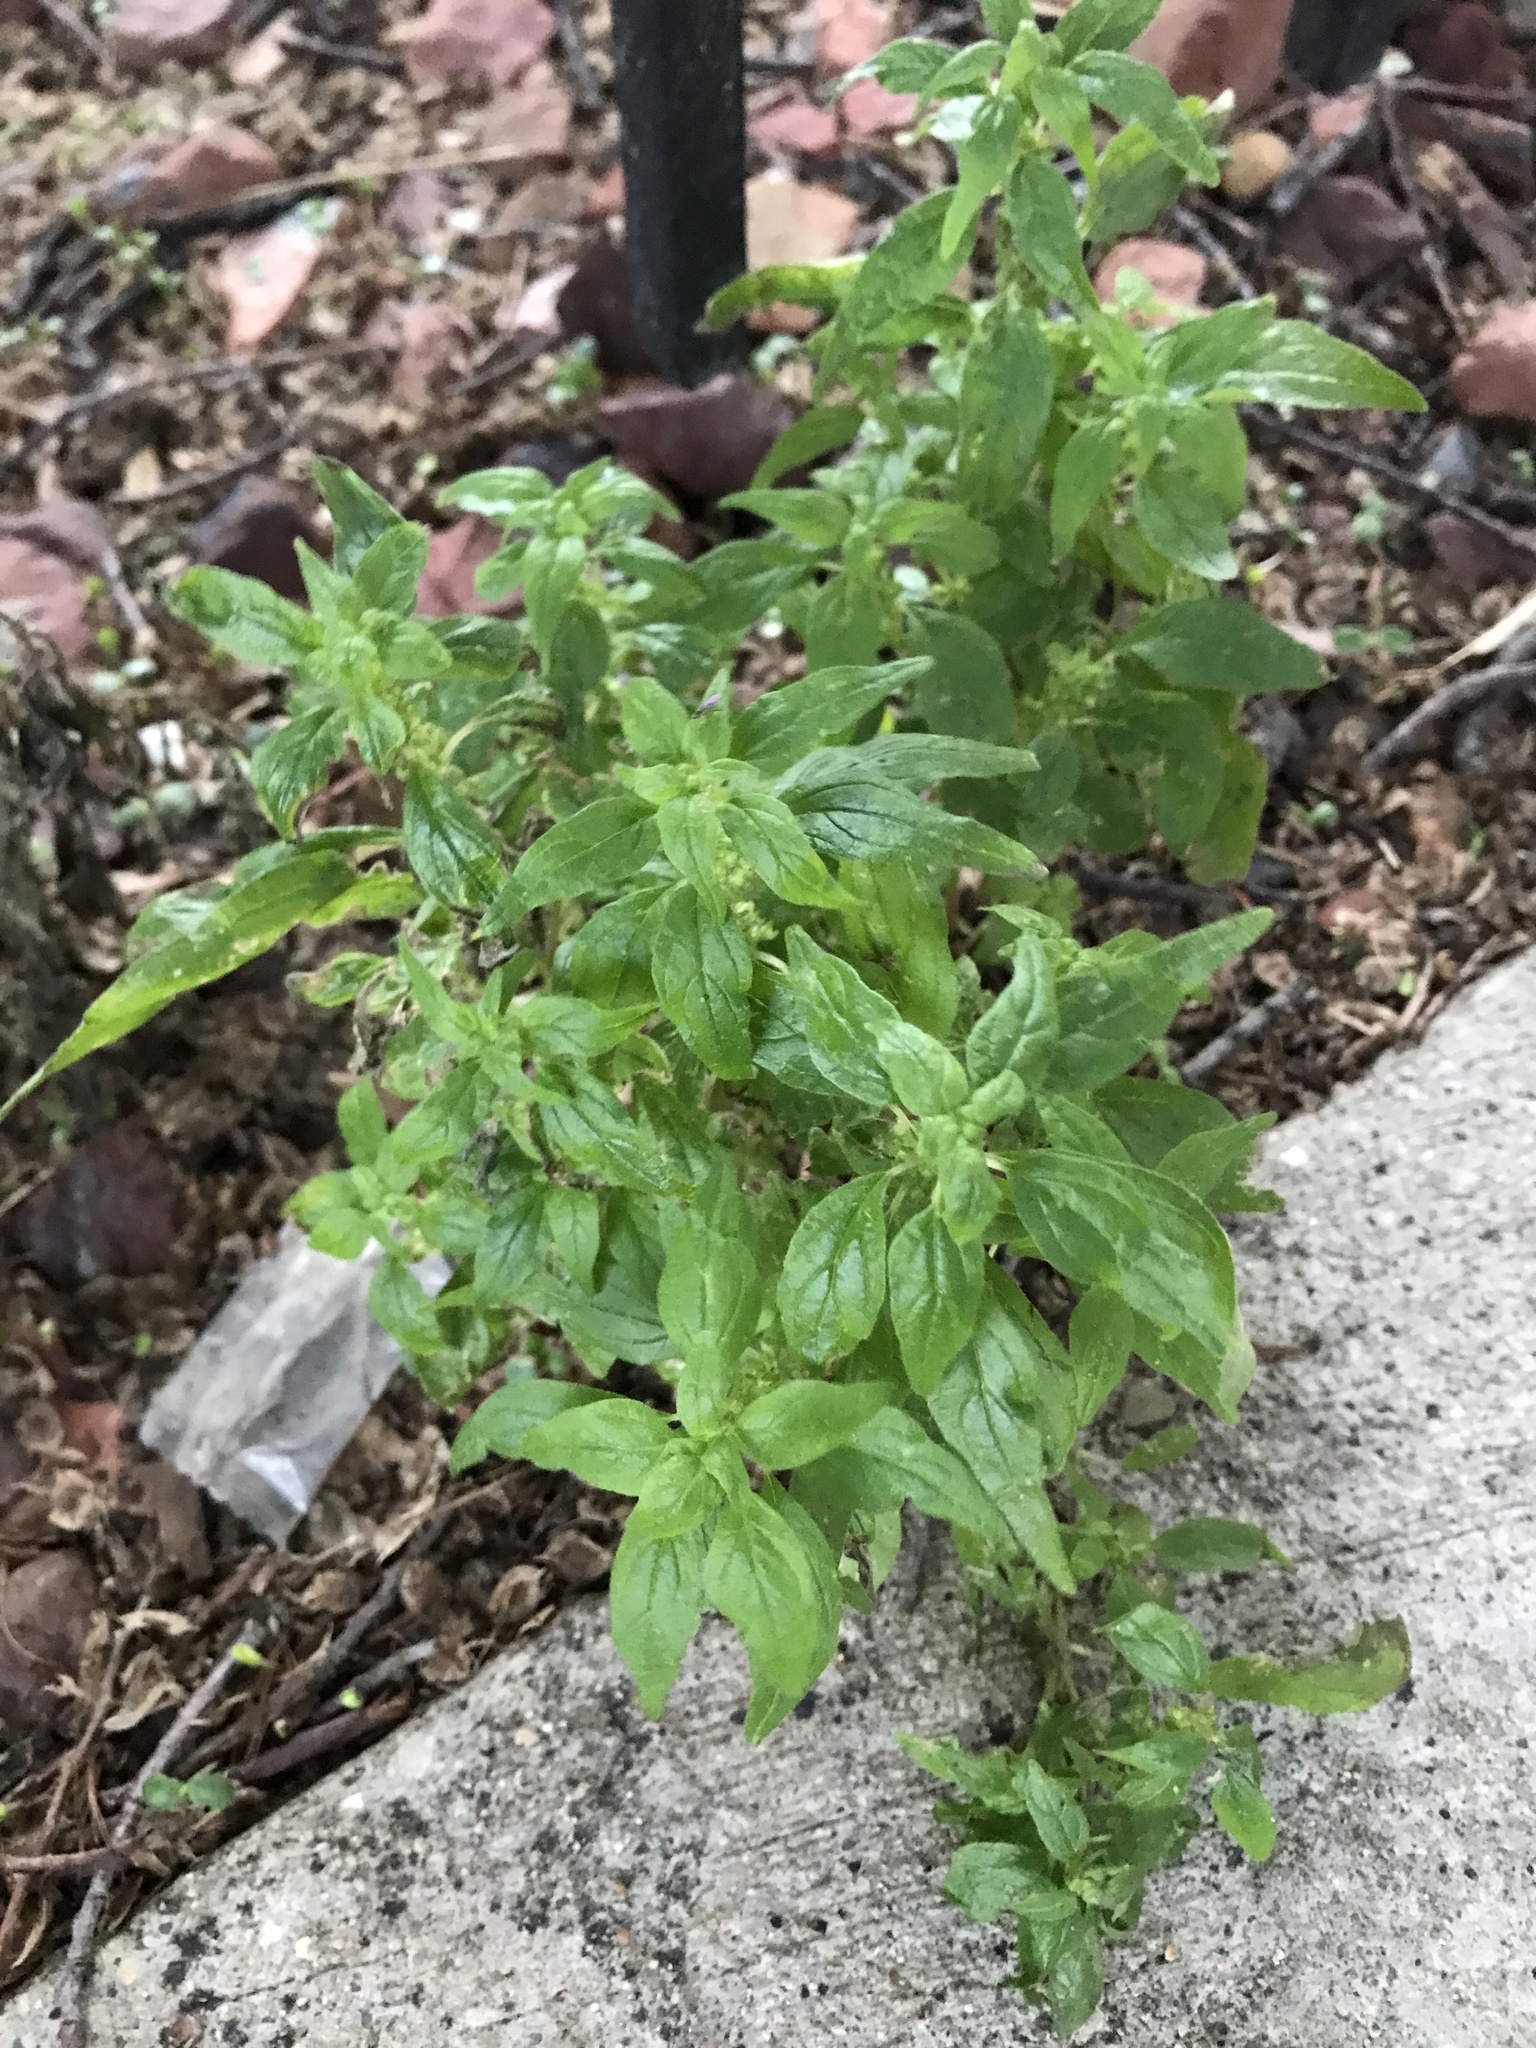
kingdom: Plantae
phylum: Tracheophyta
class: Magnoliopsida
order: Rosales
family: Urticaceae
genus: Parietaria
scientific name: Parietaria pensylvanica
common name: Pennsylvania pellitory
